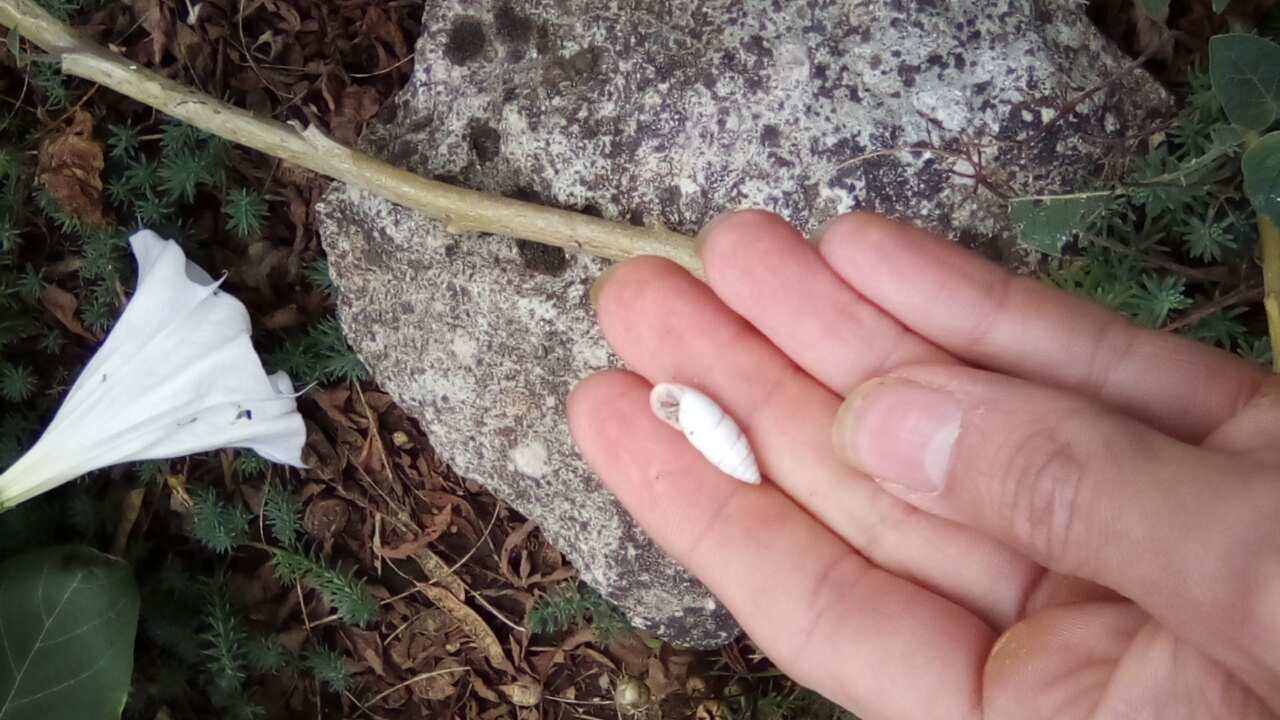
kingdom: Animalia
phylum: Mollusca
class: Gastropoda
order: Stylommatophora
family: Enidae
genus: Brephulopsis
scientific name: Brephulopsis cylindrica
